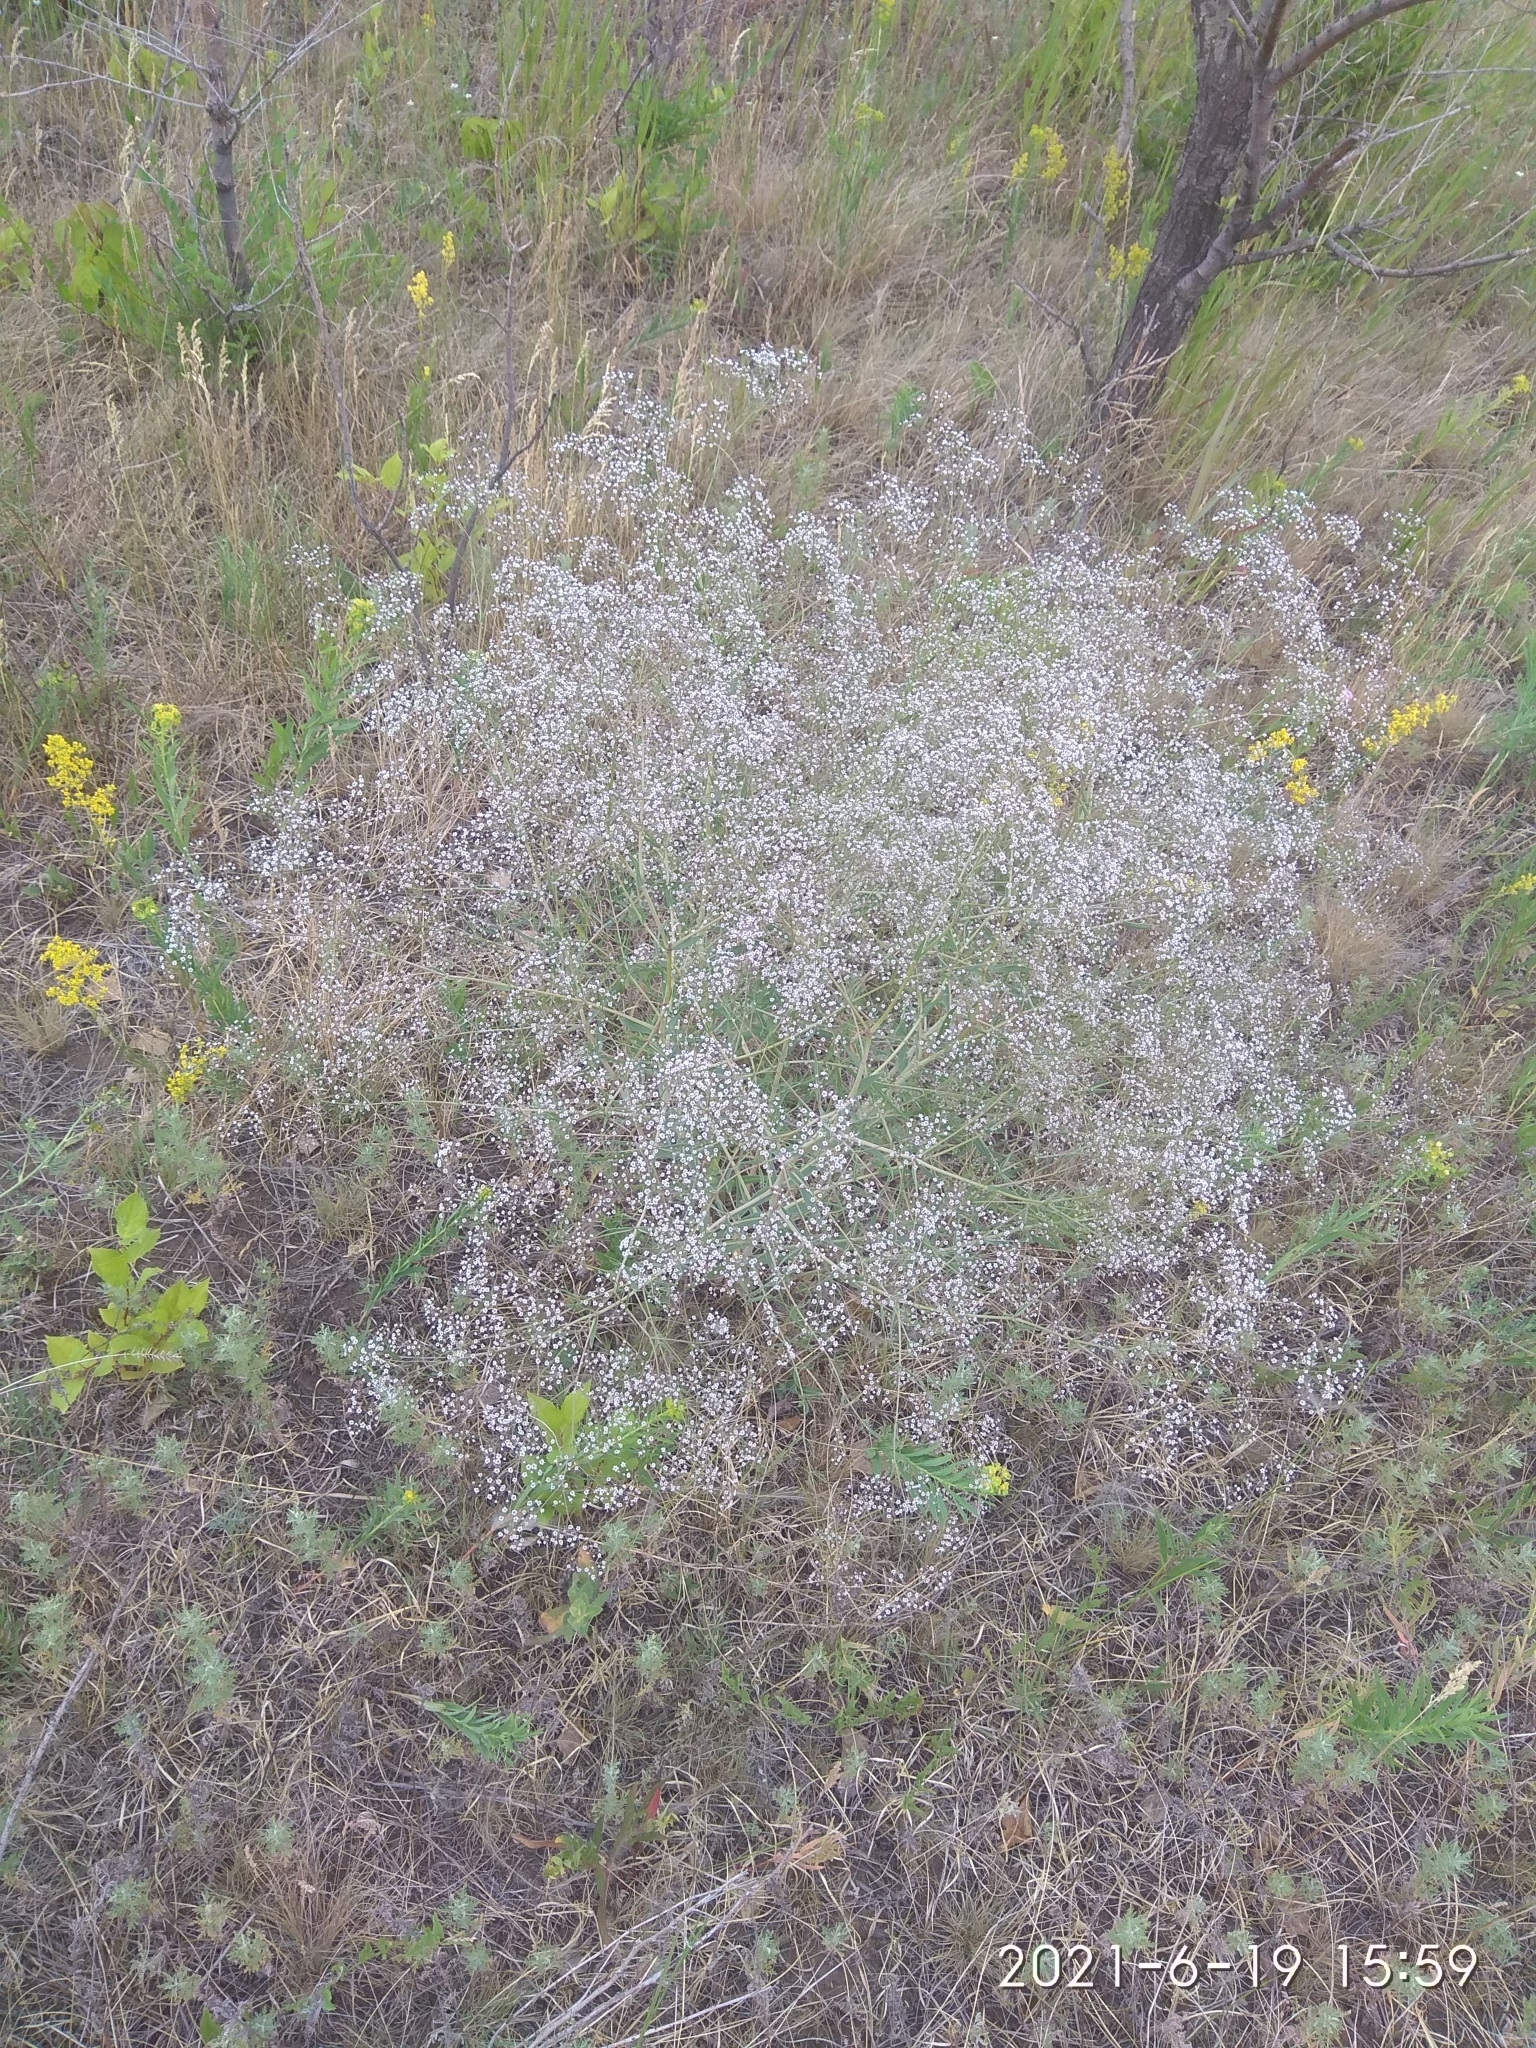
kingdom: Plantae
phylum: Tracheophyta
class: Magnoliopsida
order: Caryophyllales
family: Caryophyllaceae
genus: Gypsophila
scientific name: Gypsophila paniculata
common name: Baby's-breath
